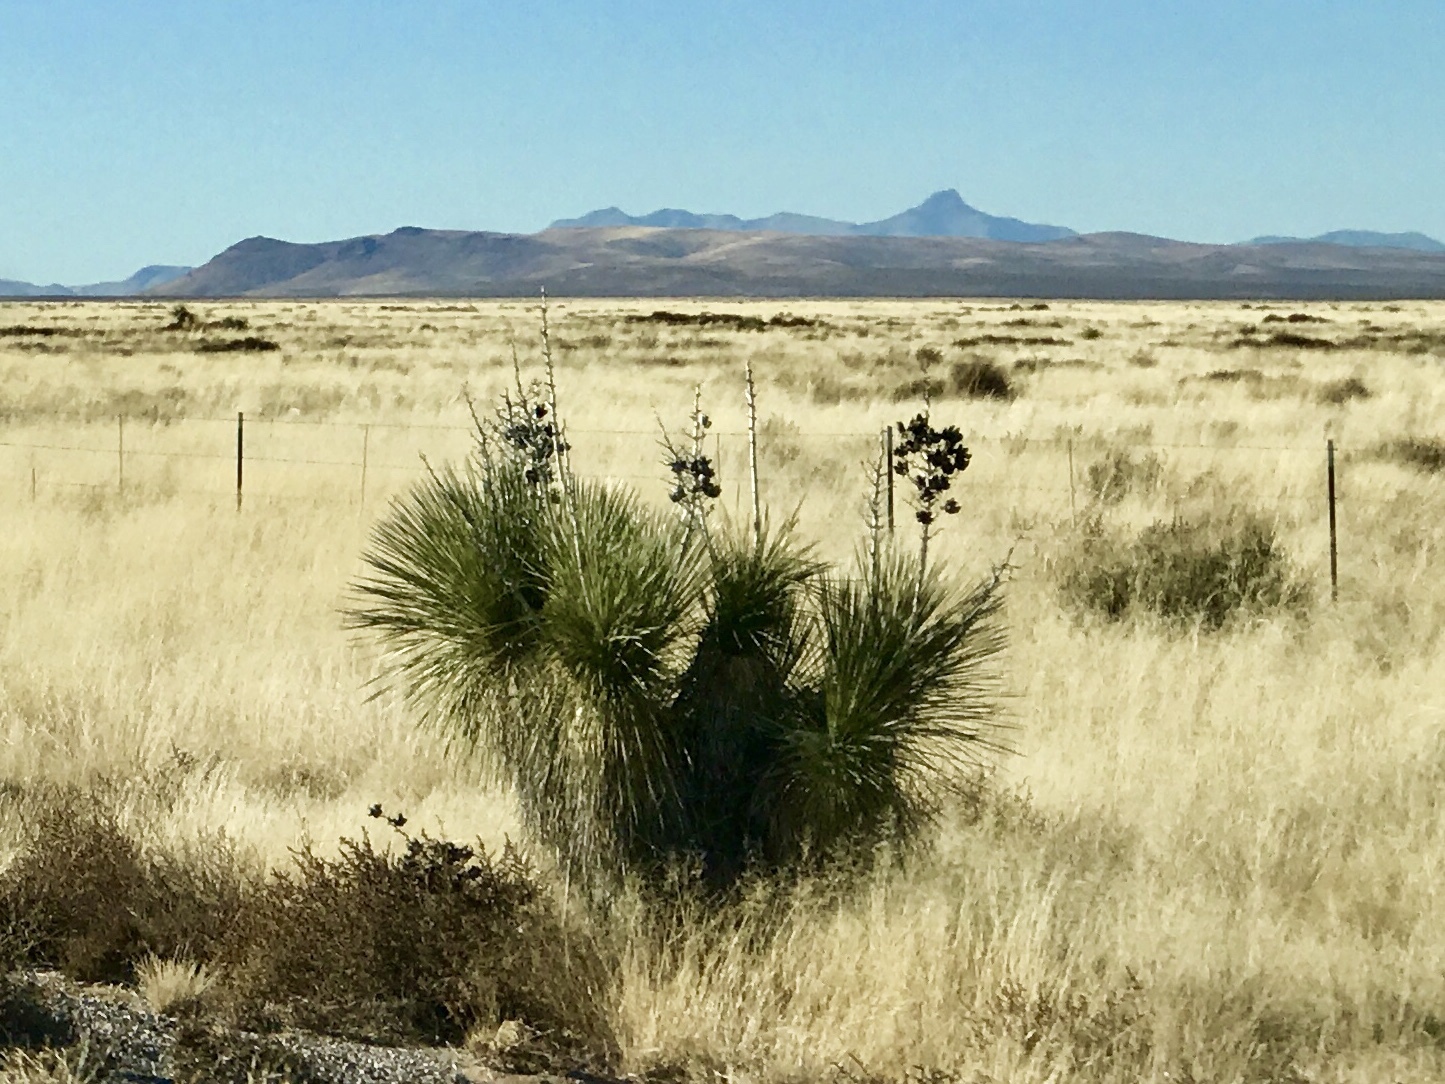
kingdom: Plantae
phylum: Tracheophyta
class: Liliopsida
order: Asparagales
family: Asparagaceae
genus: Yucca
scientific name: Yucca elata
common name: Palmella
